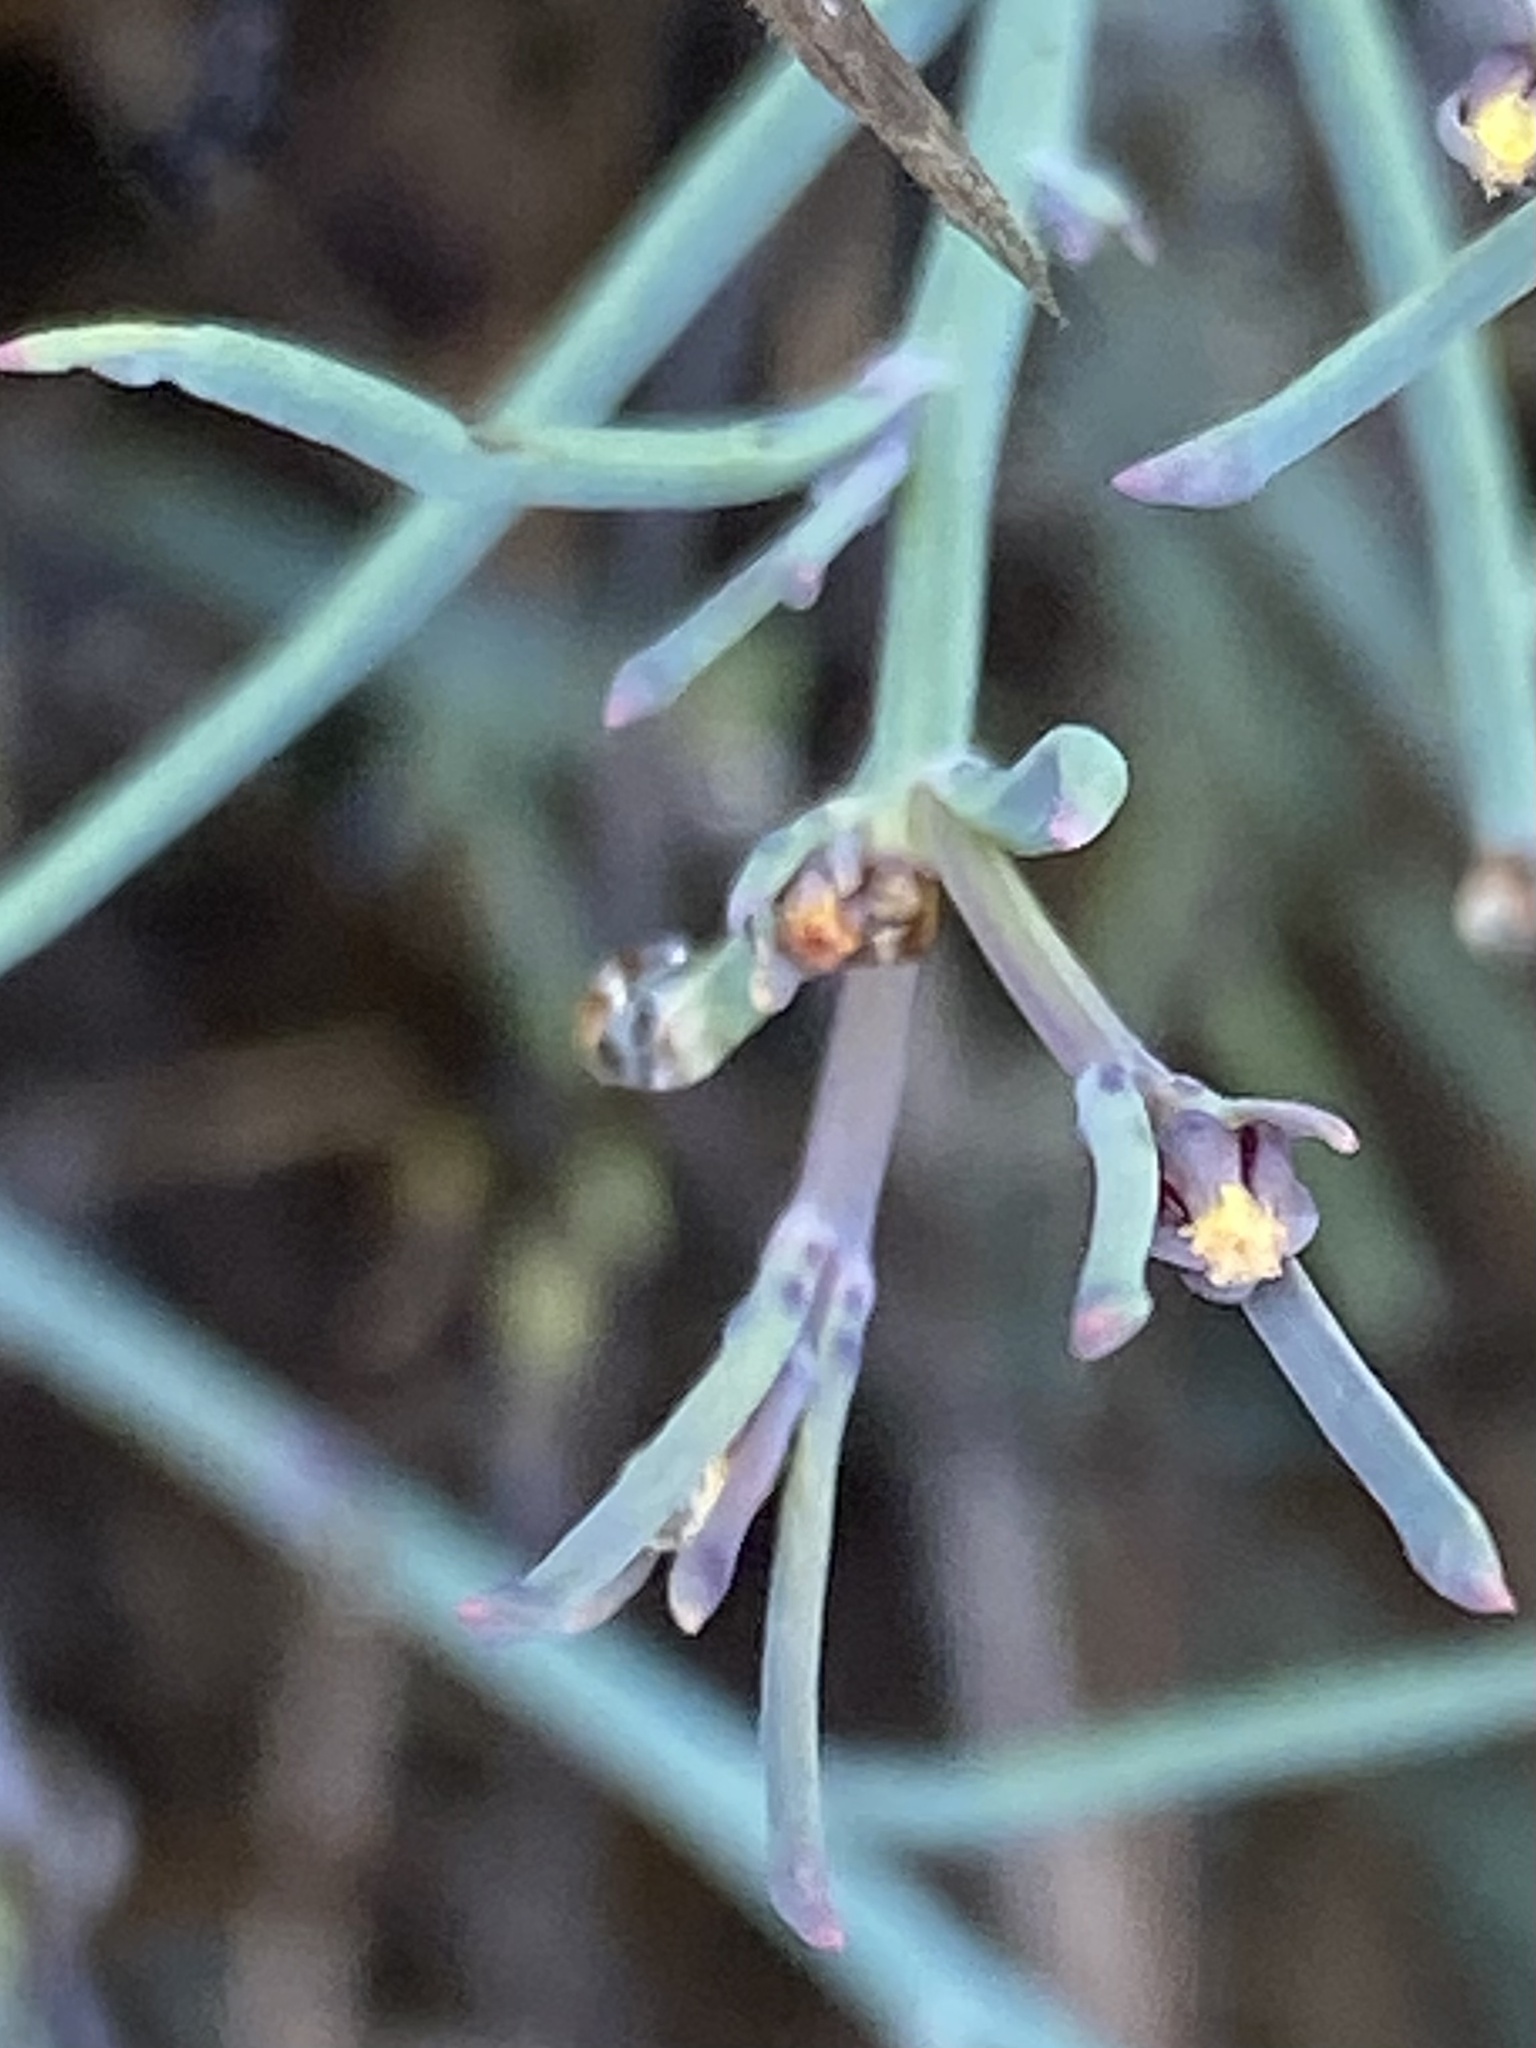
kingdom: Plantae
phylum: Tracheophyta
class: Magnoliopsida
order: Asterales
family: Asteraceae
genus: Porophyllum
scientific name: Porophyllum gracile
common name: Odora
